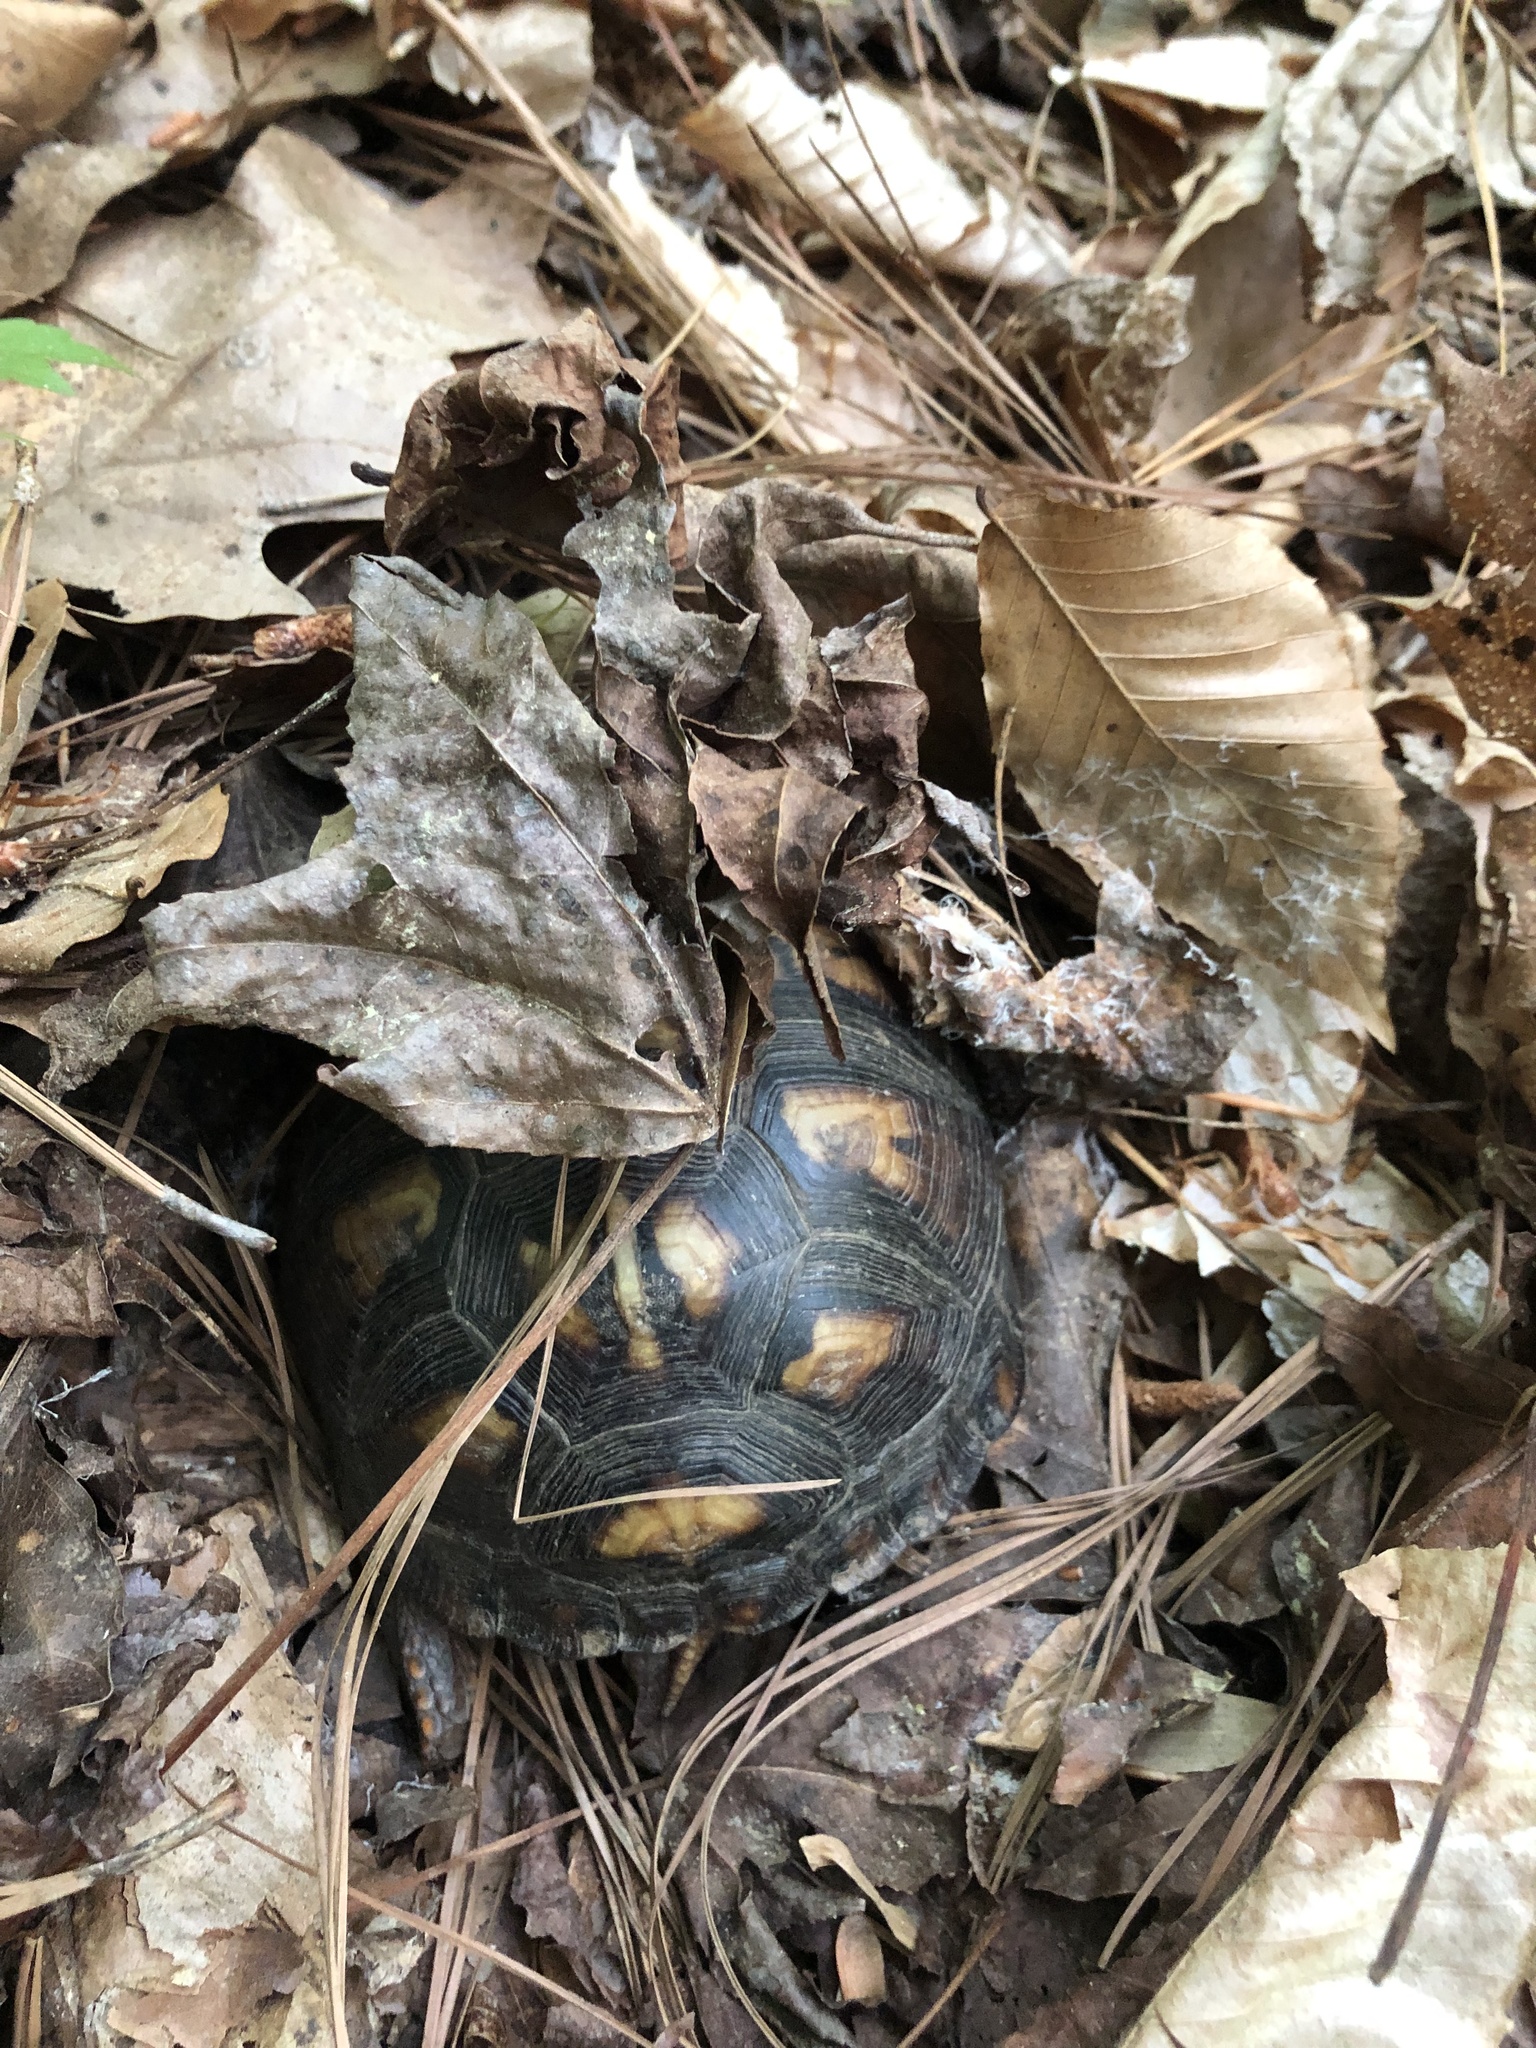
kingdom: Animalia
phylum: Chordata
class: Testudines
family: Emydidae
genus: Terrapene
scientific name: Terrapene carolina
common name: Common box turtle
